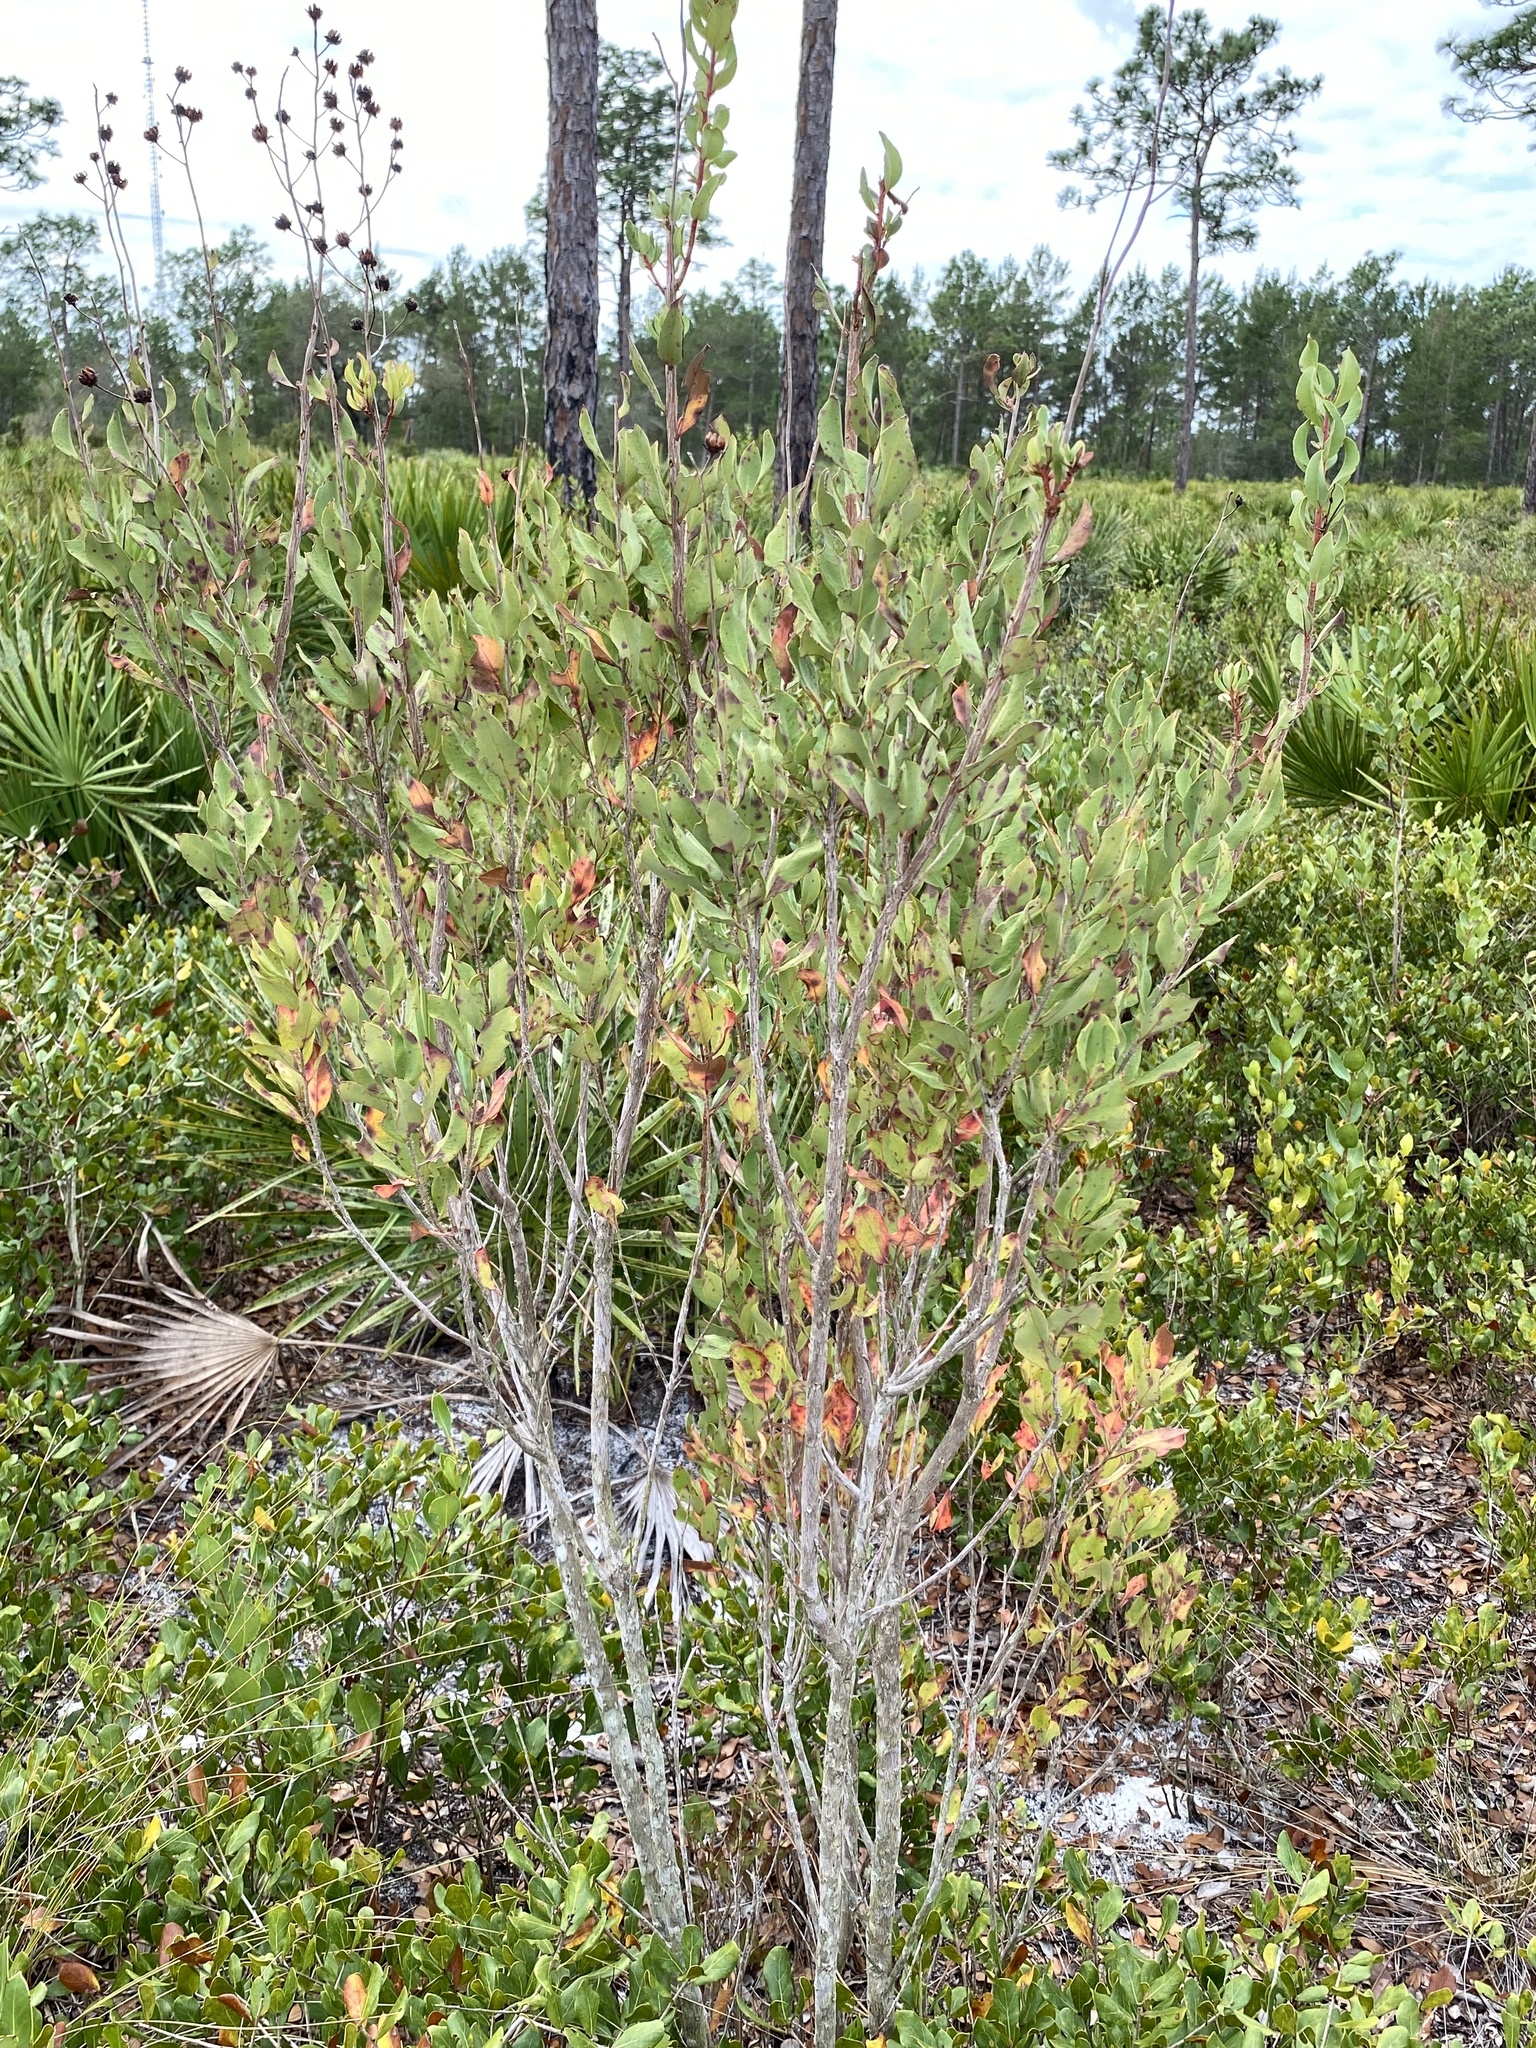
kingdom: Plantae
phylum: Tracheophyta
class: Magnoliopsida
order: Ericales
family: Ericaceae
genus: Bejaria
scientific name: Bejaria racemosa
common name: Tarflower
